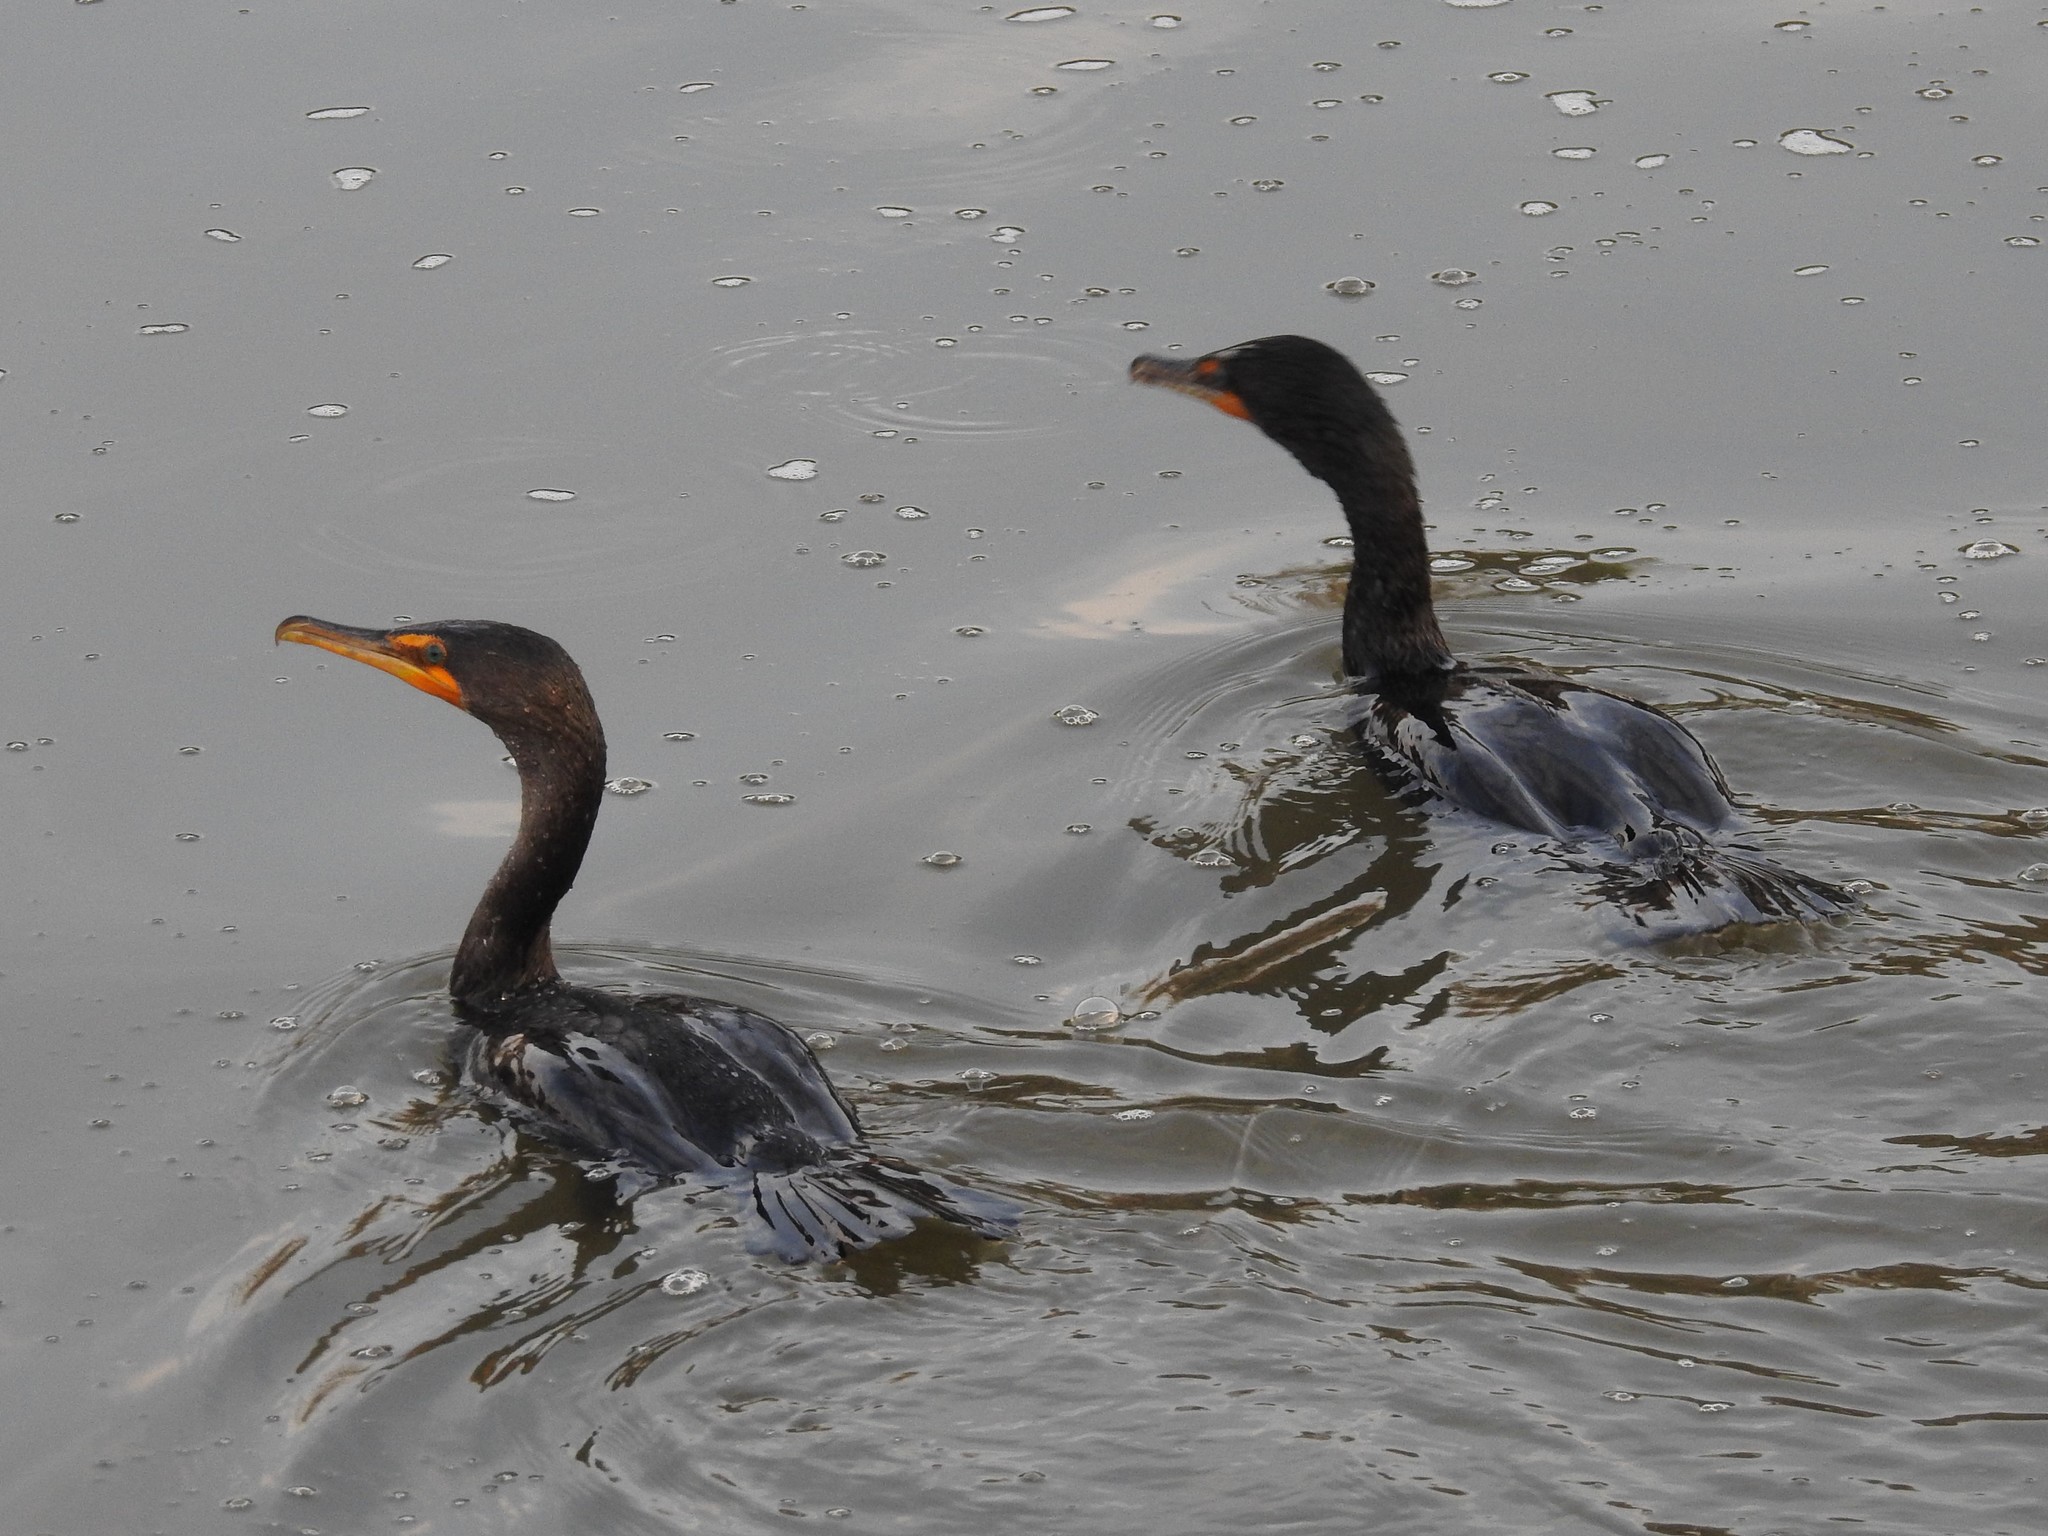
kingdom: Animalia
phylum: Chordata
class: Aves
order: Suliformes
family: Phalacrocoracidae
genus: Phalacrocorax
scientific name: Phalacrocorax auritus
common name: Double-crested cormorant
